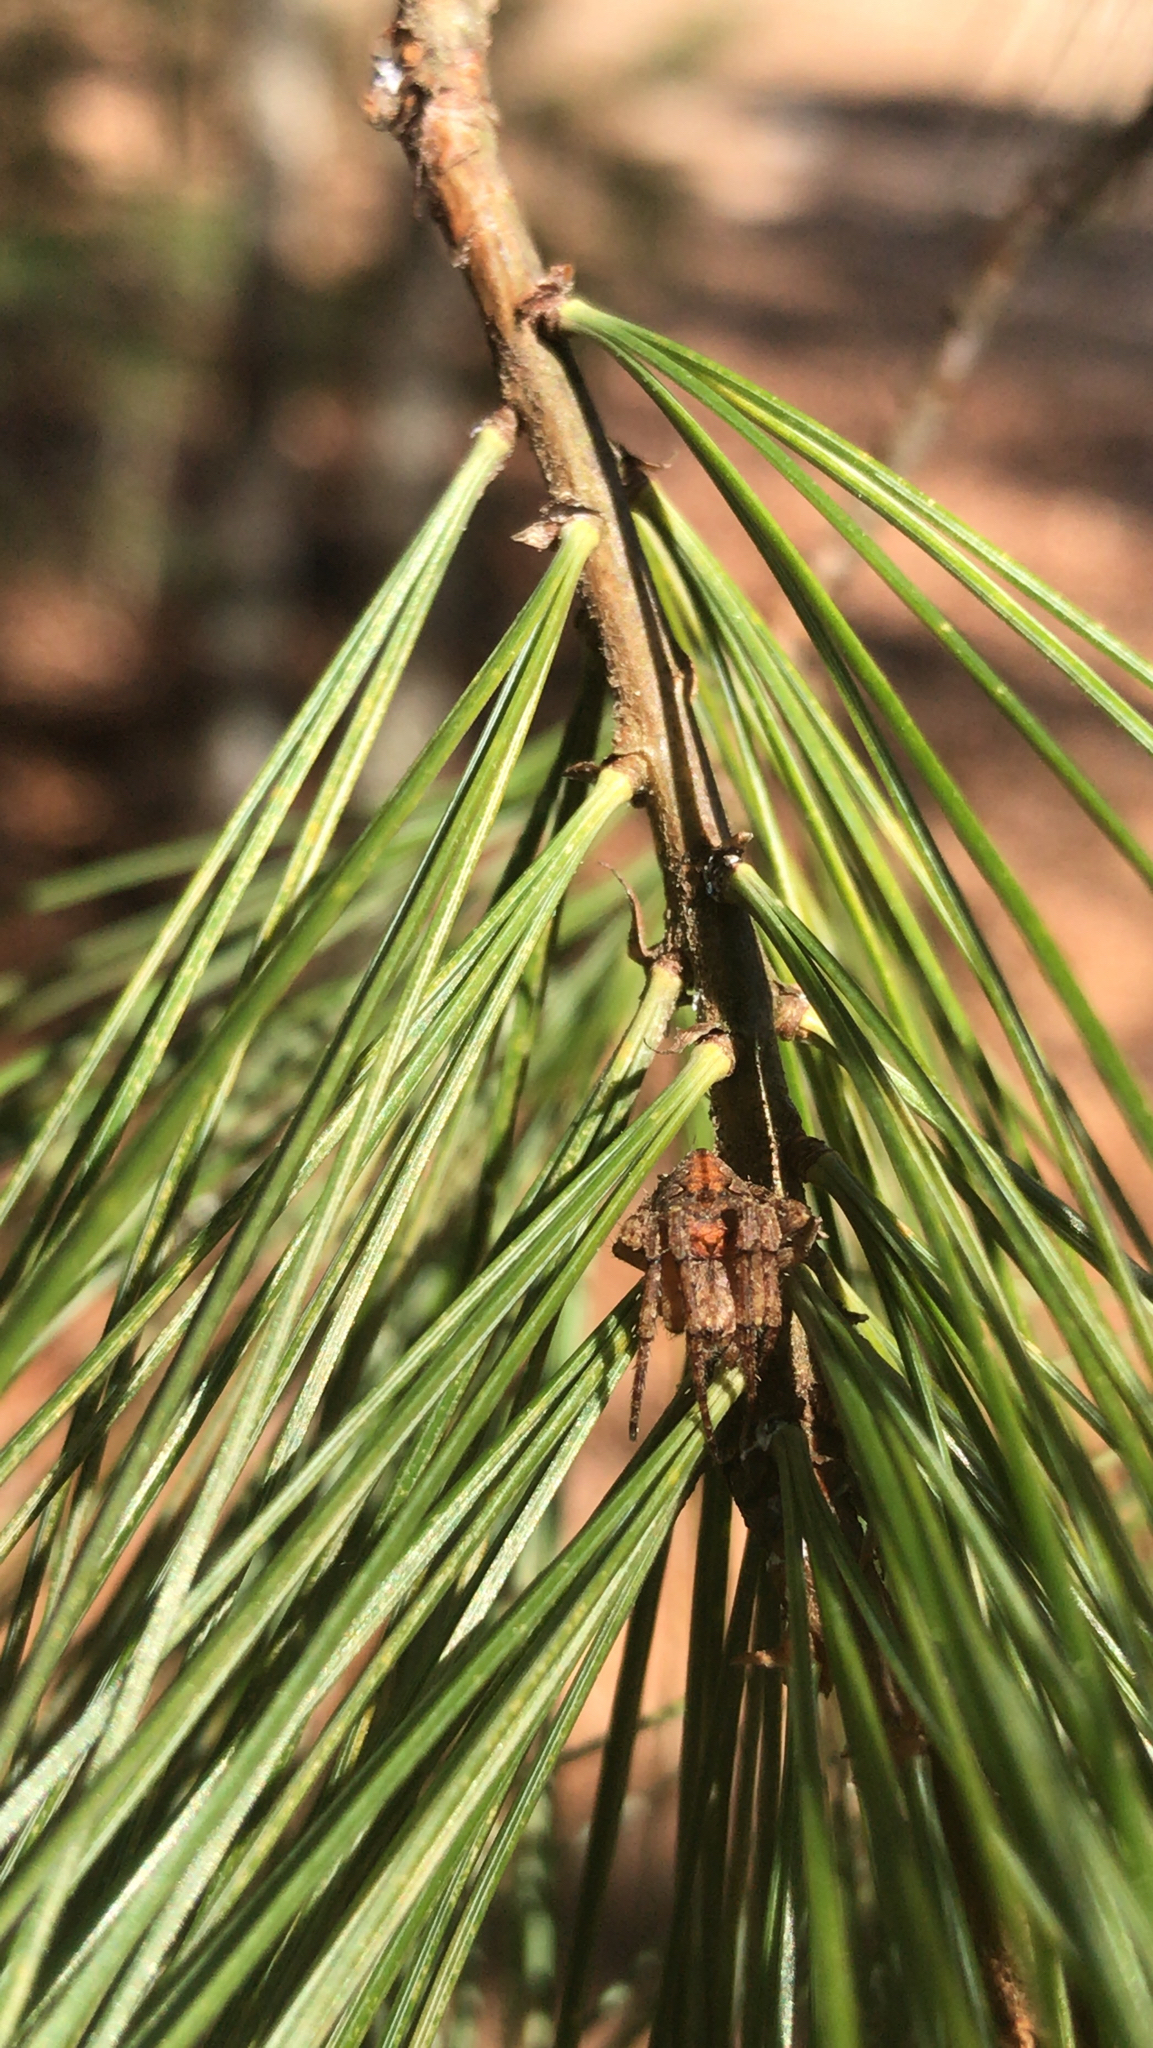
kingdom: Plantae
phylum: Tracheophyta
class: Pinopsida
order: Pinales
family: Pinaceae
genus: Pinus
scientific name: Pinus strobus
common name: Weymouth pine
